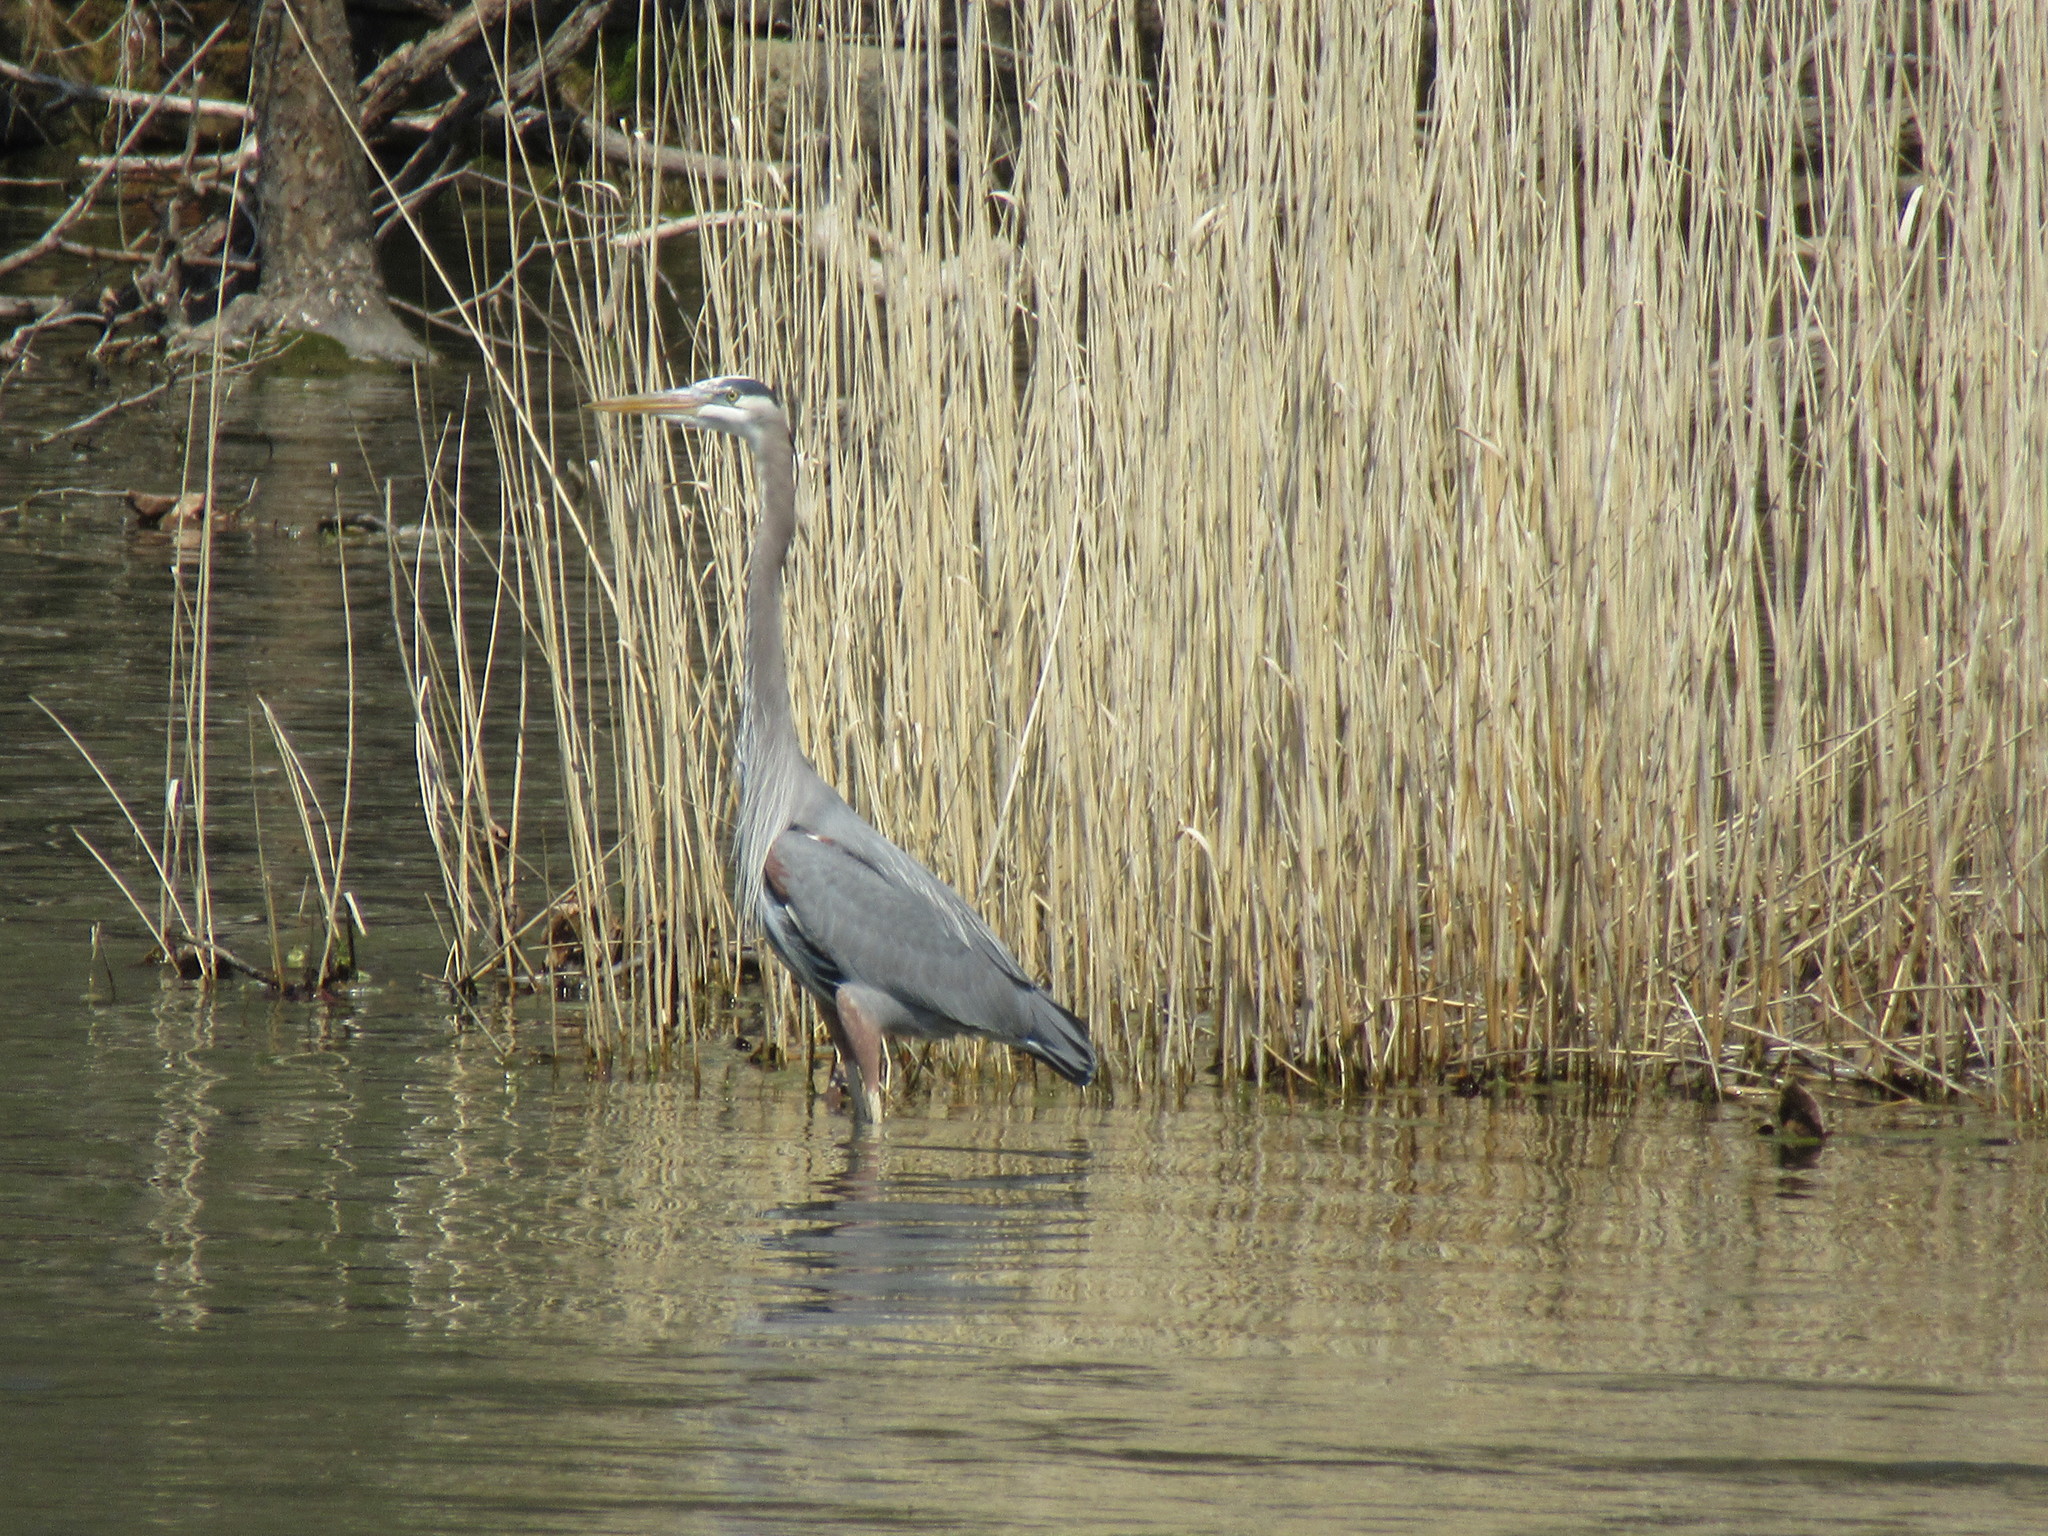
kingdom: Animalia
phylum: Chordata
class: Aves
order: Pelecaniformes
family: Ardeidae
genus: Ardea
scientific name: Ardea herodias
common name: Great blue heron
